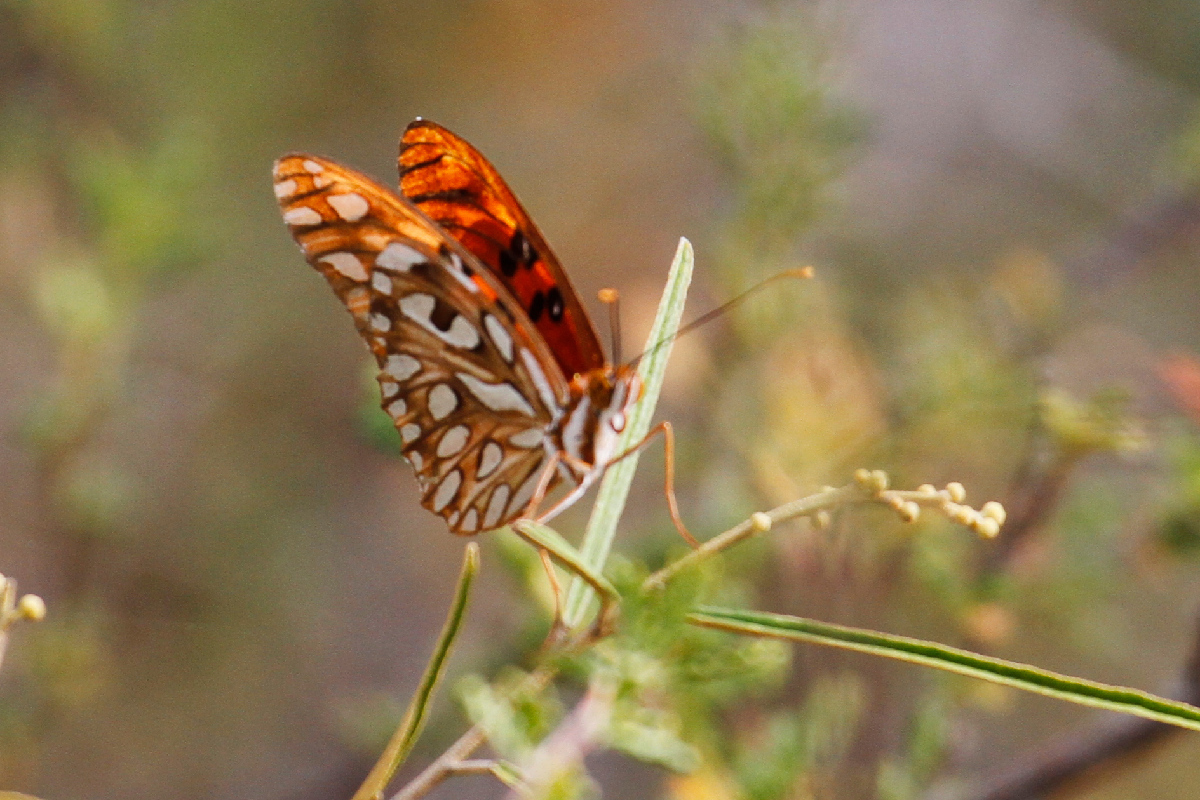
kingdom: Animalia
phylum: Arthropoda
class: Insecta
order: Lepidoptera
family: Nymphalidae
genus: Dione
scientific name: Dione vanillae
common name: Gulf fritillary
